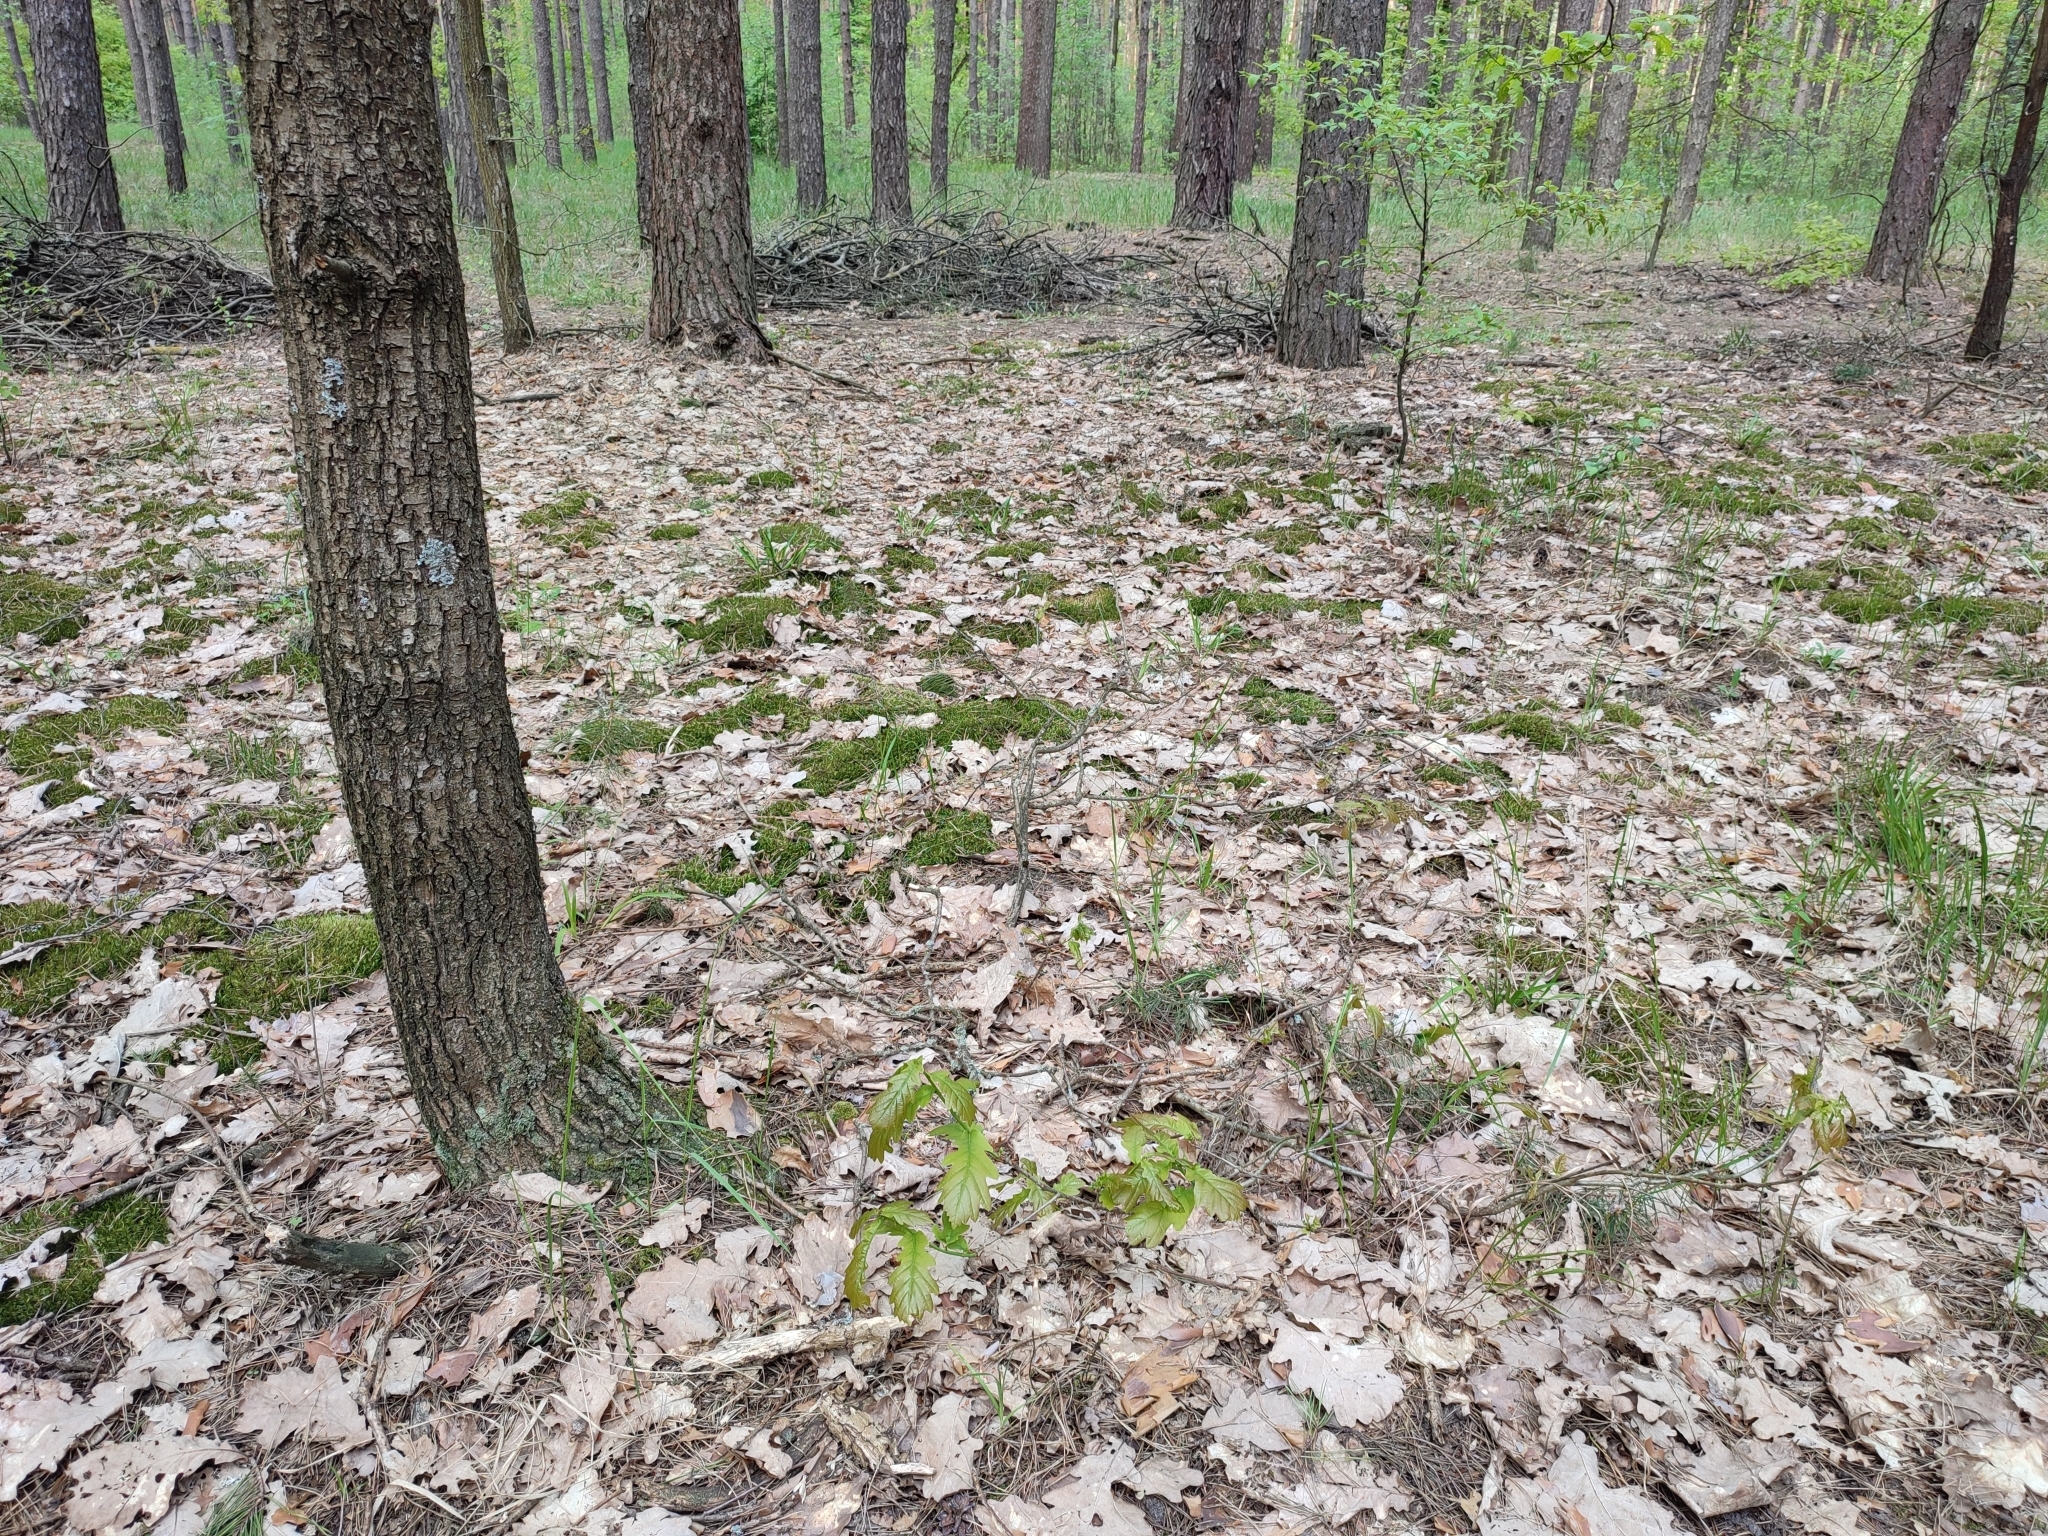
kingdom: Plantae
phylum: Tracheophyta
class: Magnoliopsida
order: Fagales
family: Fagaceae
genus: Quercus
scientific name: Quercus robur
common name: Pedunculate oak
